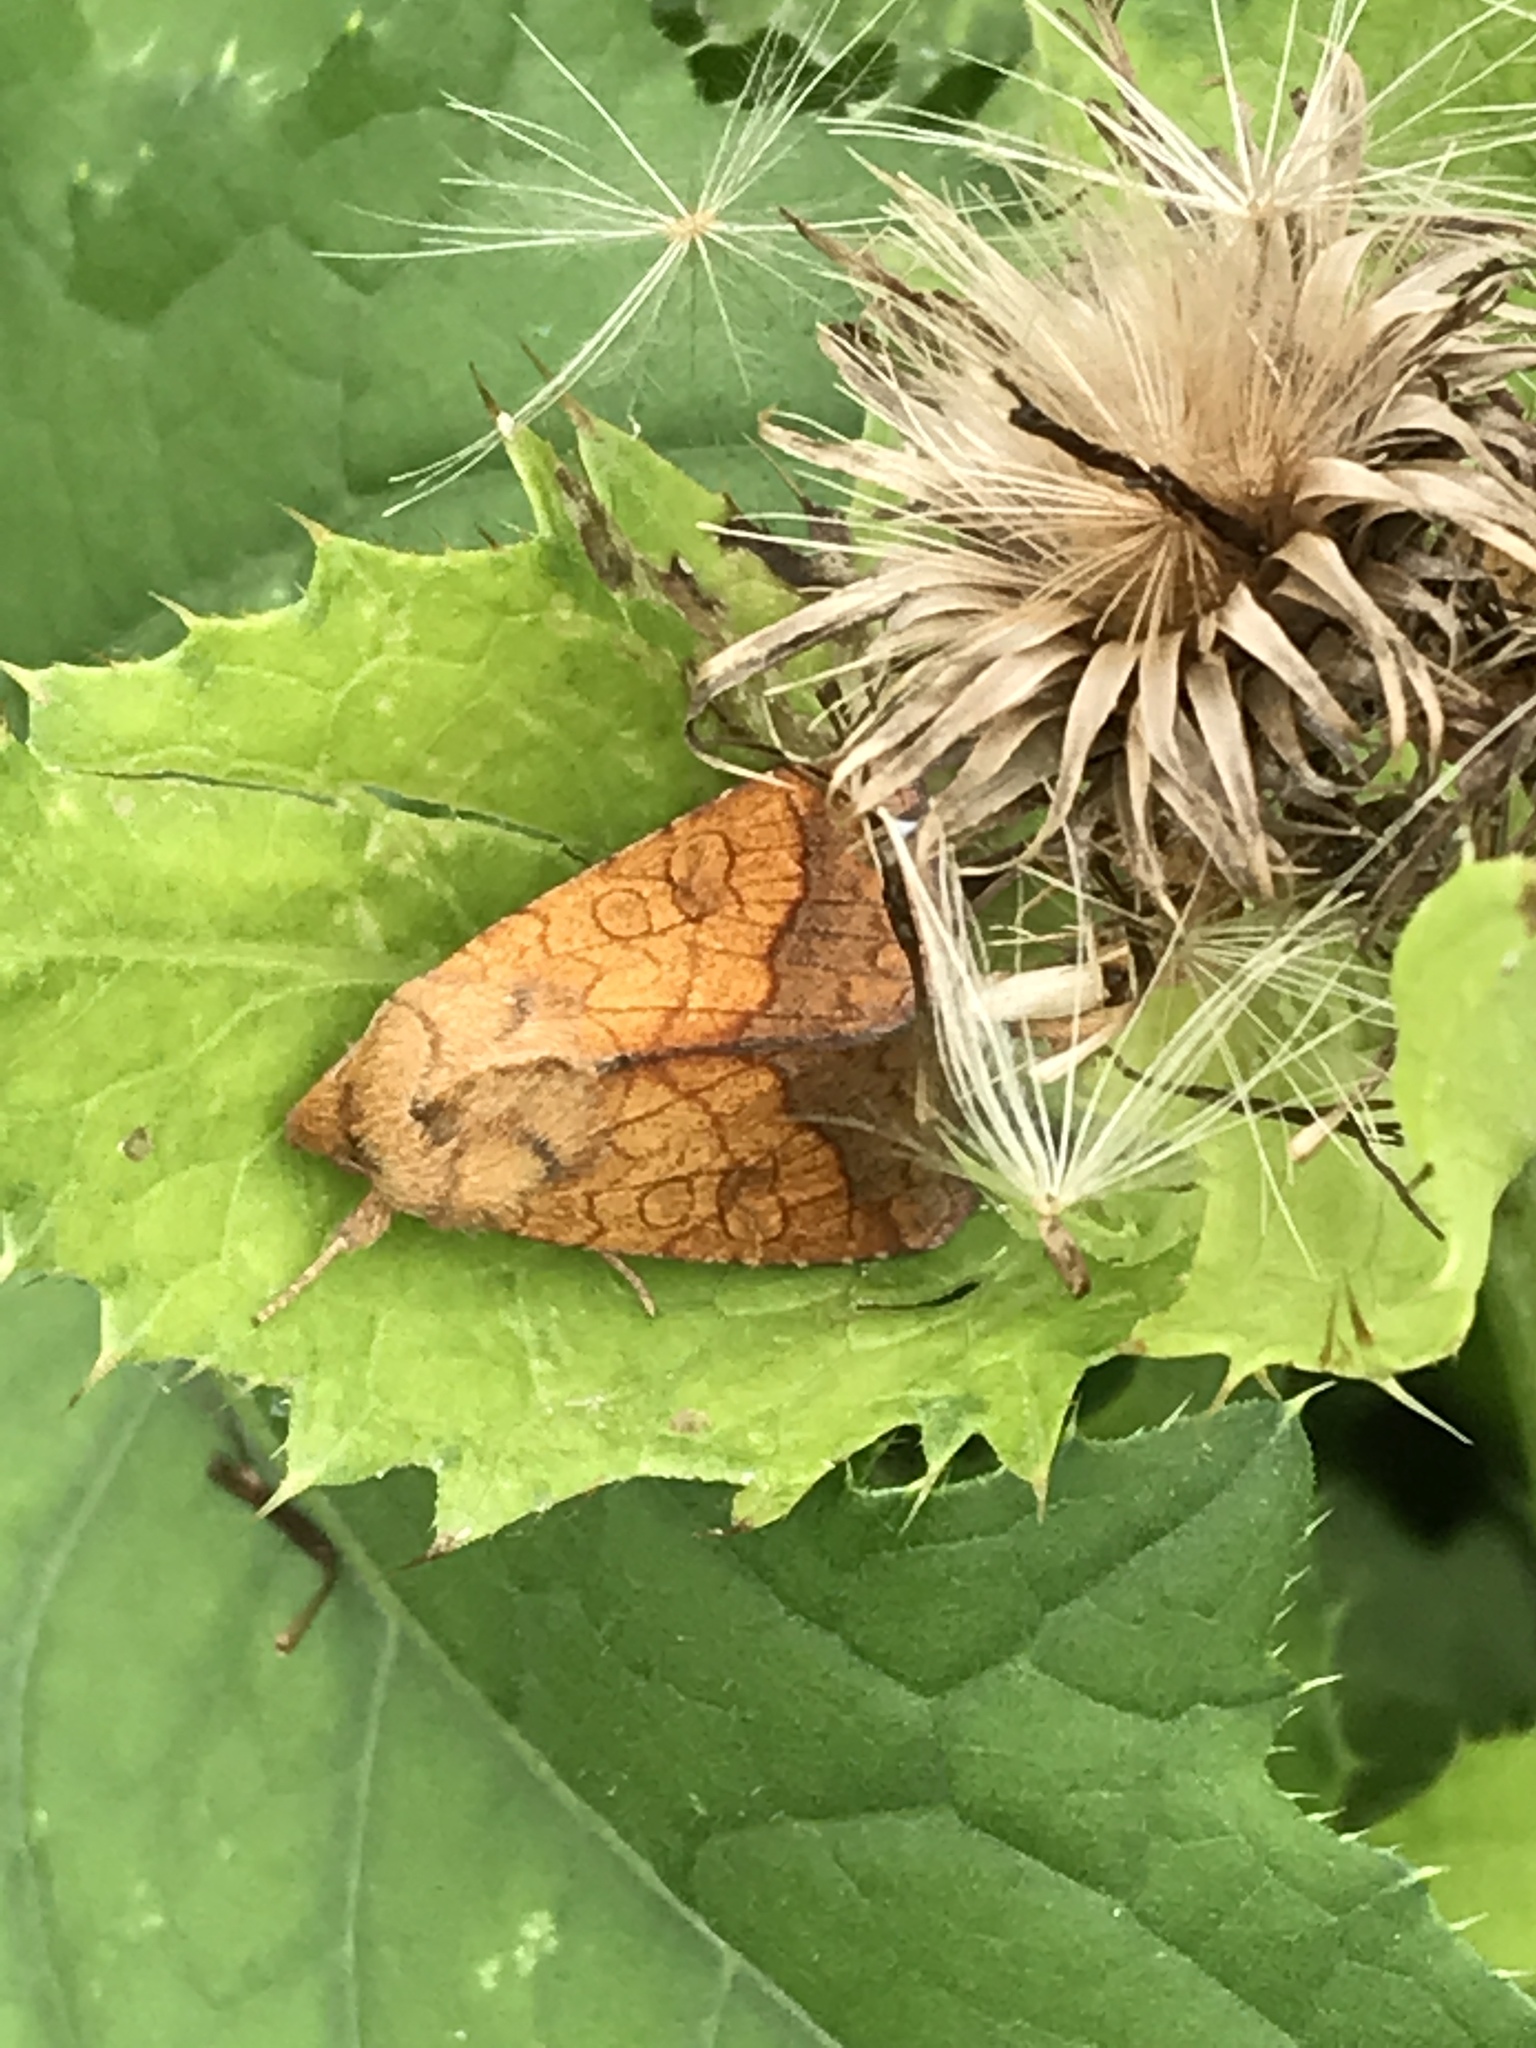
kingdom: Animalia
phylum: Arthropoda
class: Insecta
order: Lepidoptera
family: Noctuidae
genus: Pyrrhia
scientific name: Pyrrhia umbra
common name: Bordered sallow
